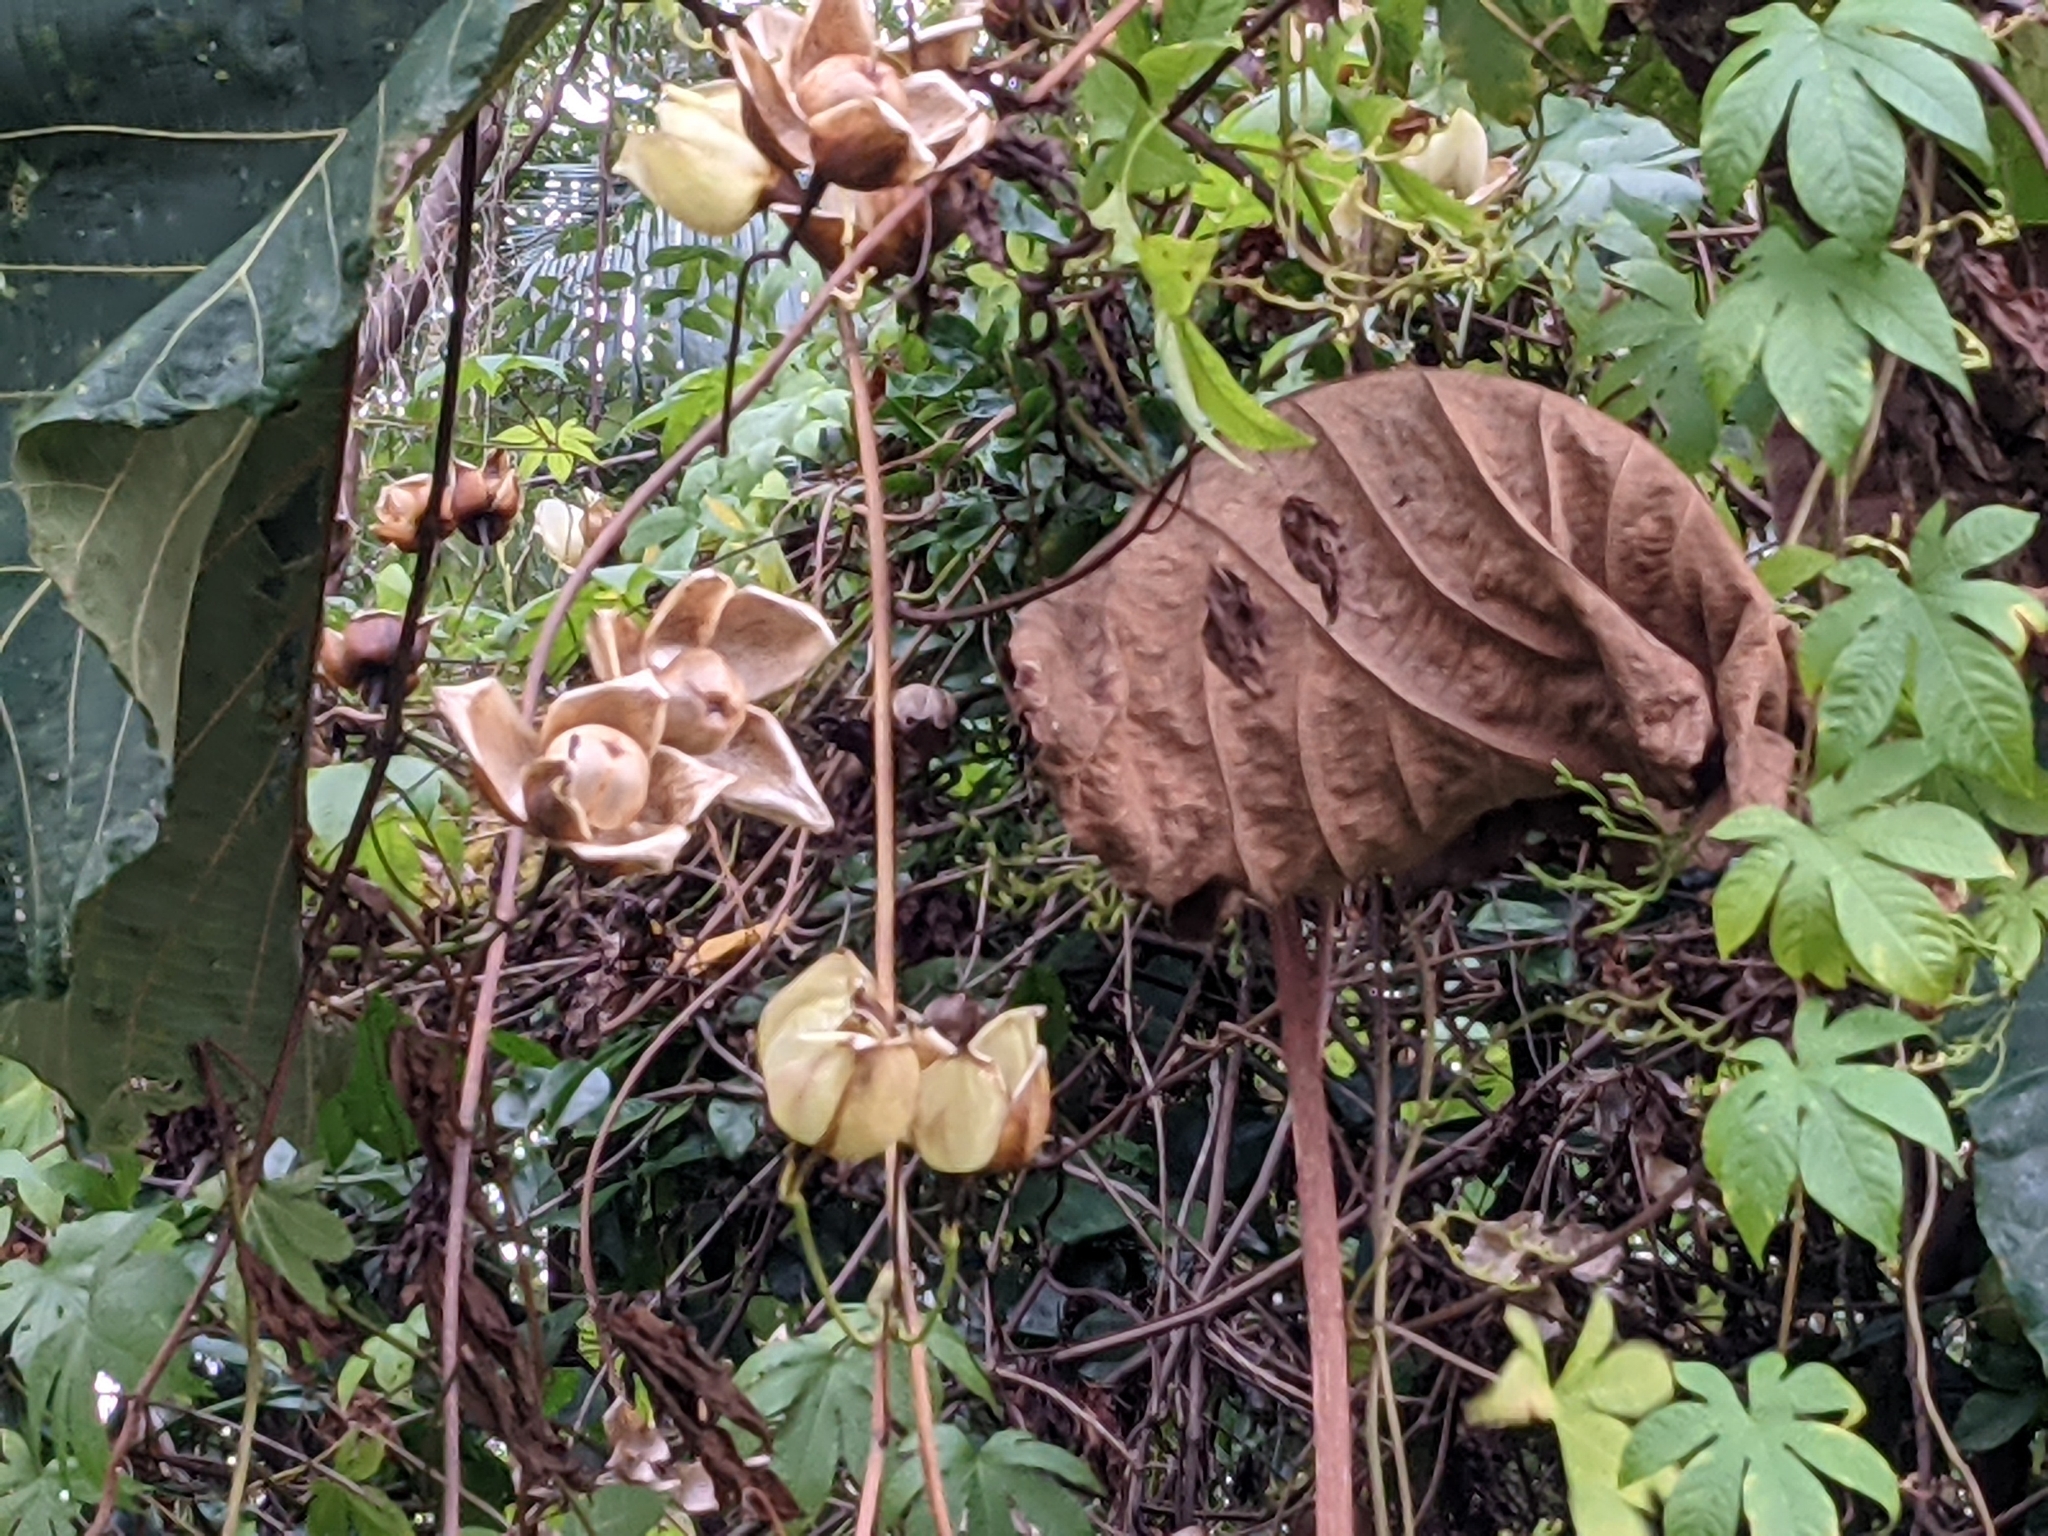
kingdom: Plantae
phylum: Tracheophyta
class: Magnoliopsida
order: Solanales
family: Convolvulaceae
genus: Distimake
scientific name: Distimake tuberosus
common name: Spanish arborvine
